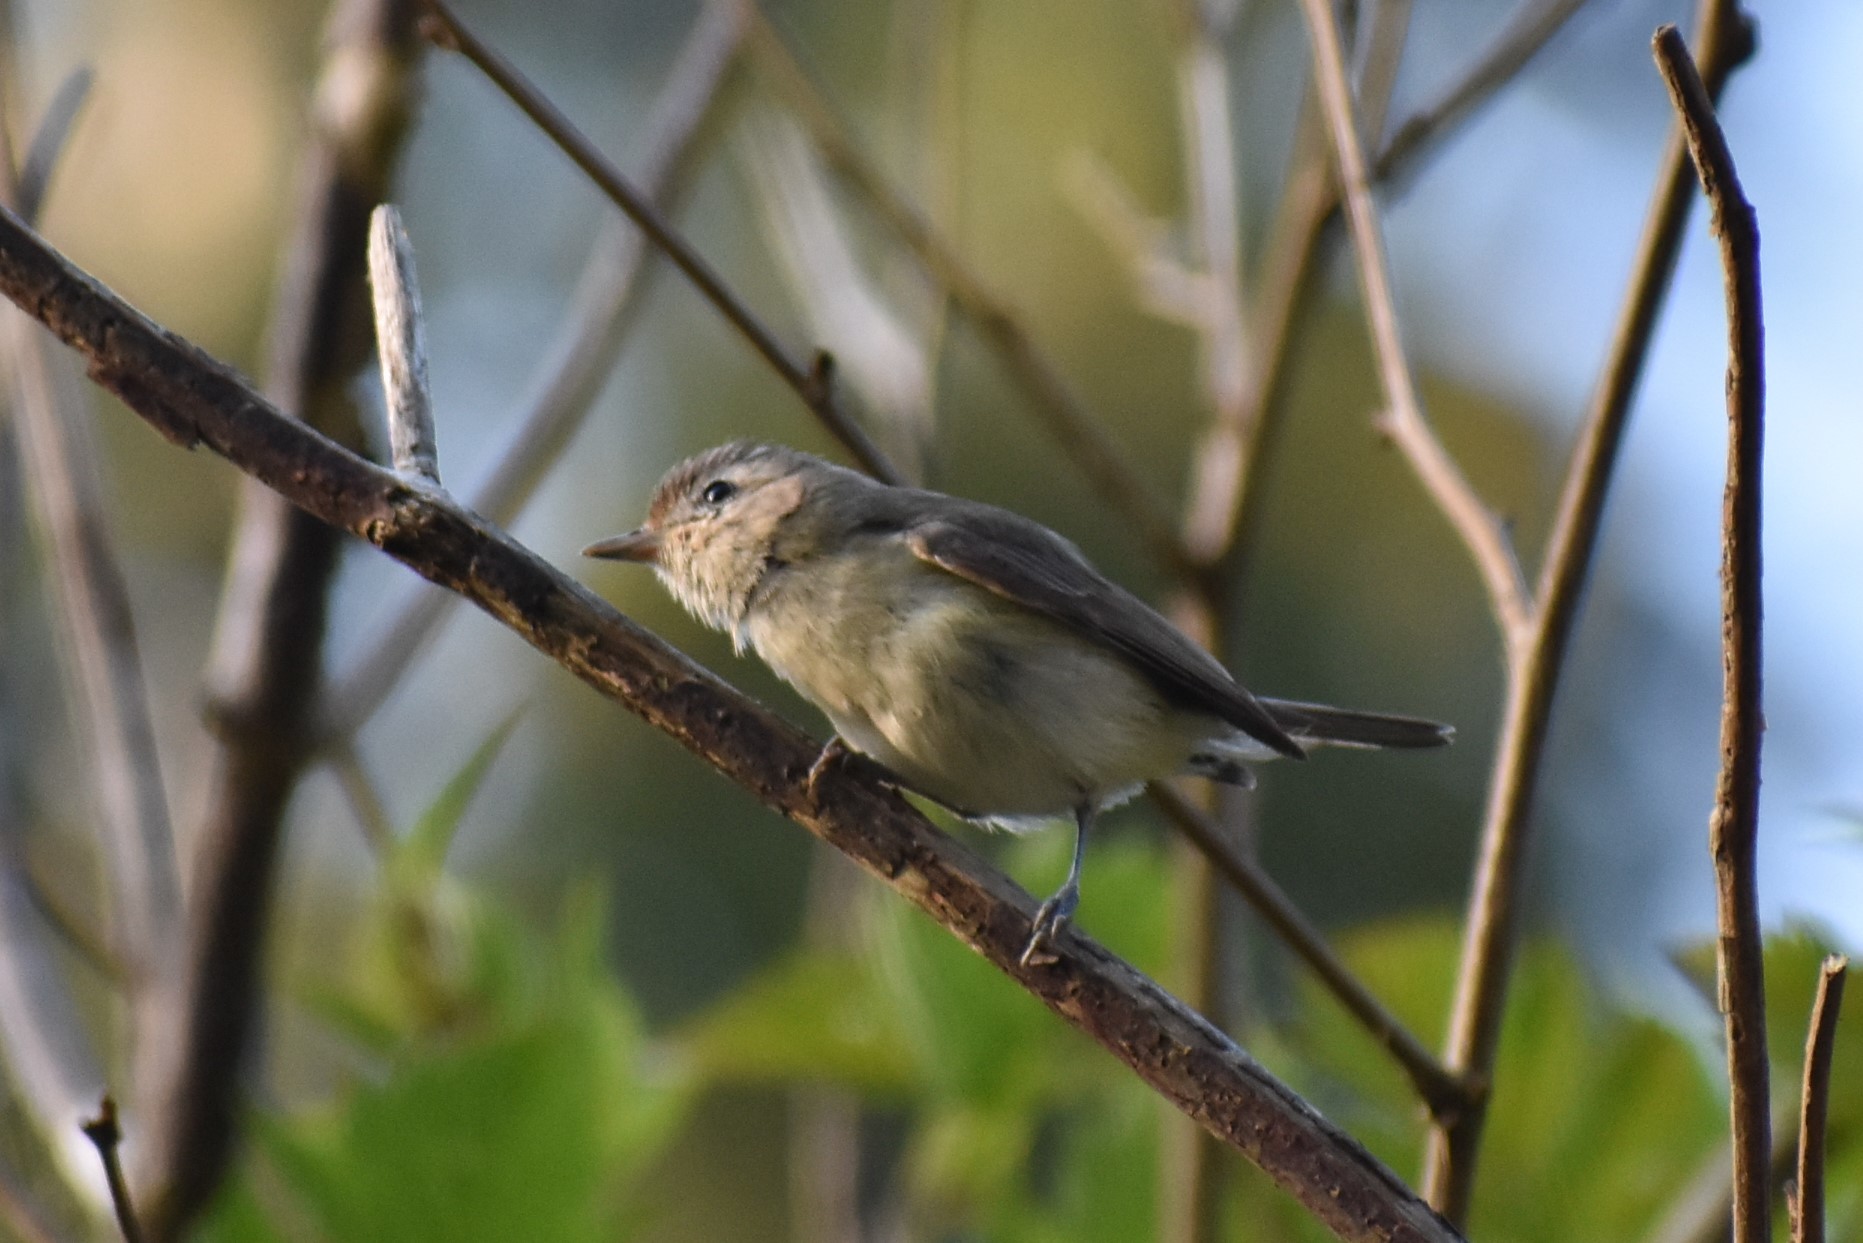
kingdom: Animalia
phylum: Chordata
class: Aves
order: Passeriformes
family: Vireonidae
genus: Vireo
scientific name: Vireo gilvus
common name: Warbling vireo
